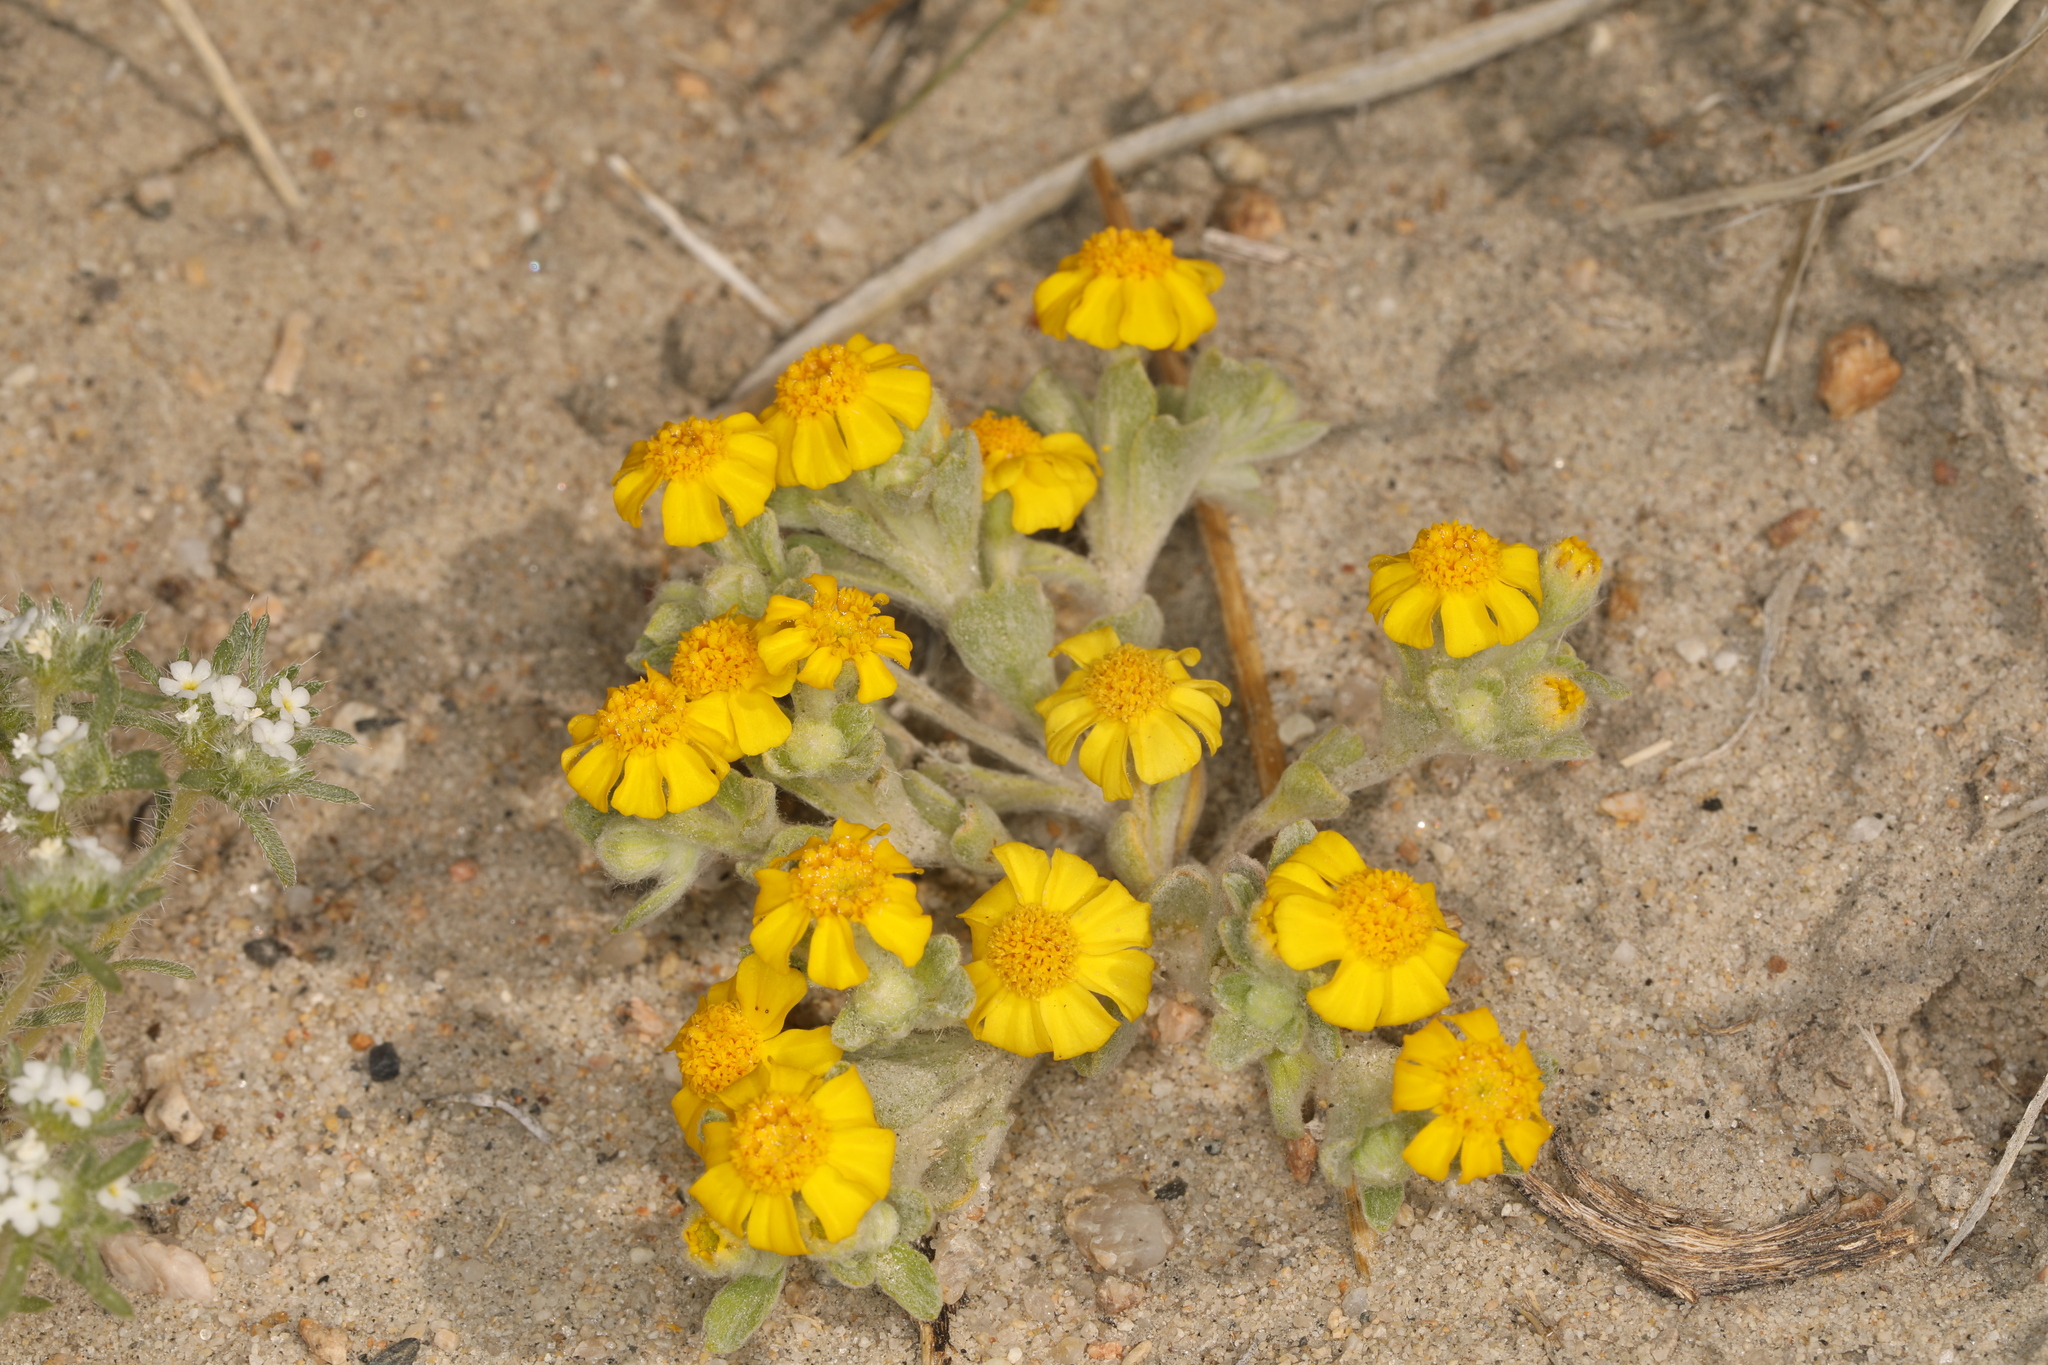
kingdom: Plantae
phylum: Tracheophyta
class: Magnoliopsida
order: Asterales
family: Asteraceae
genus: Eriophyllum
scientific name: Eriophyllum wallacei
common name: Wallace's woolly daisy
